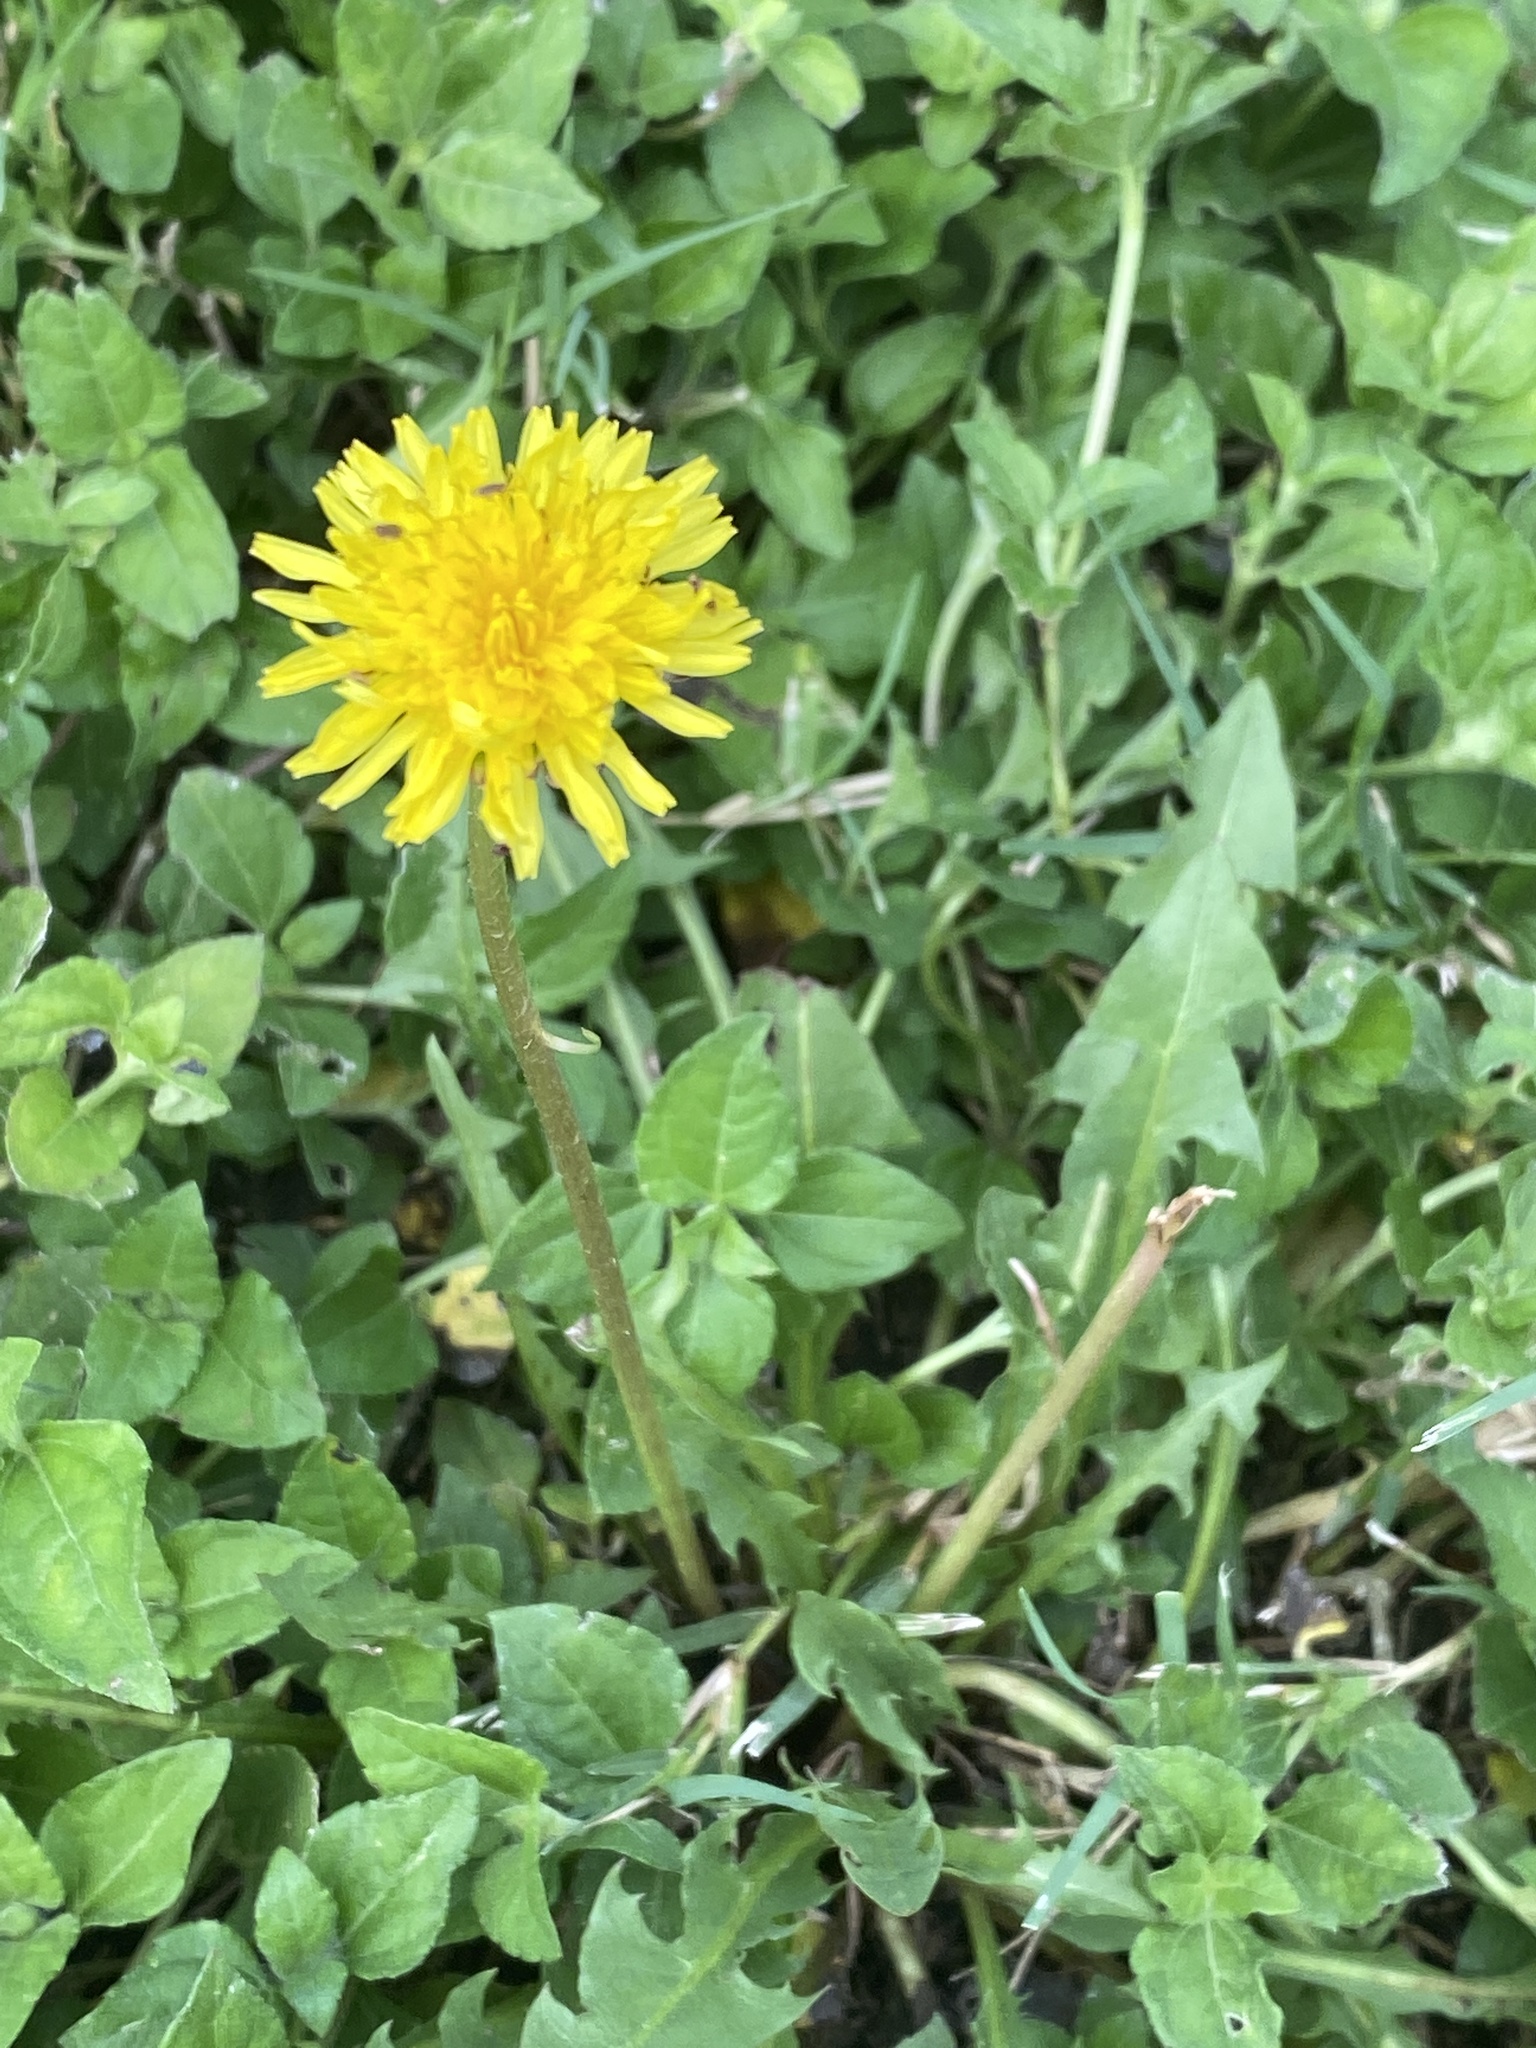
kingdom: Plantae
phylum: Tracheophyta
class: Magnoliopsida
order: Asterales
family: Asteraceae
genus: Taraxacum
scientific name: Taraxacum officinale
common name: Common dandelion
